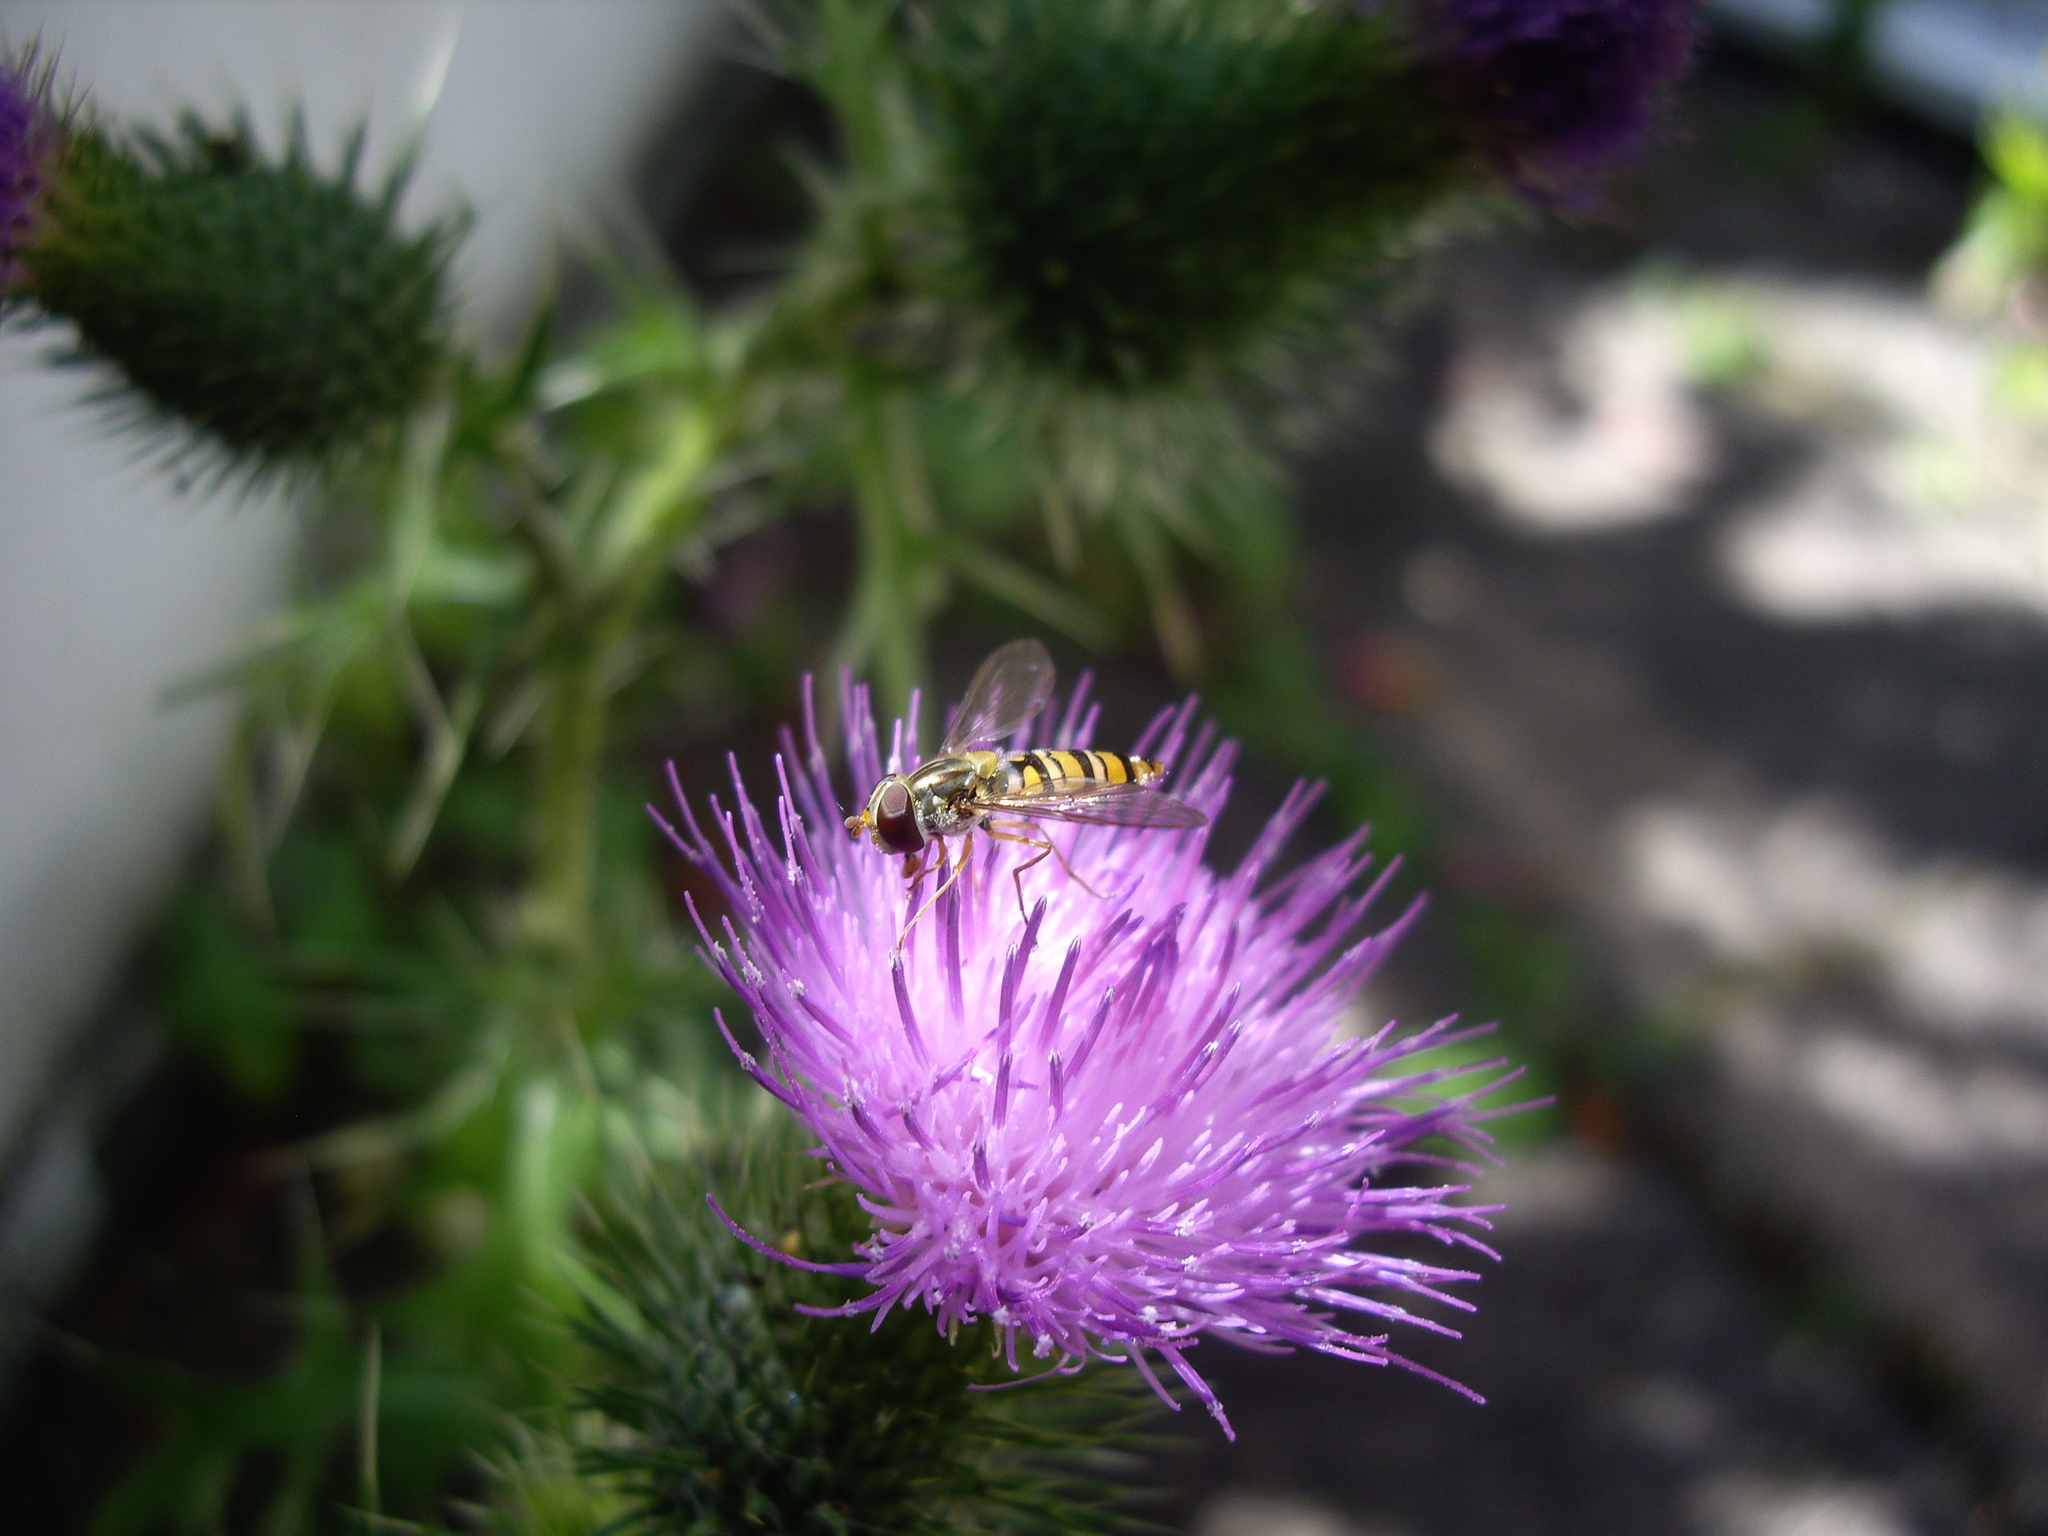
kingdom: Animalia
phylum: Arthropoda
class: Insecta
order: Diptera
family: Syrphidae
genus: Episyrphus
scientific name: Episyrphus balteatus
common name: Marmalade hoverfly
